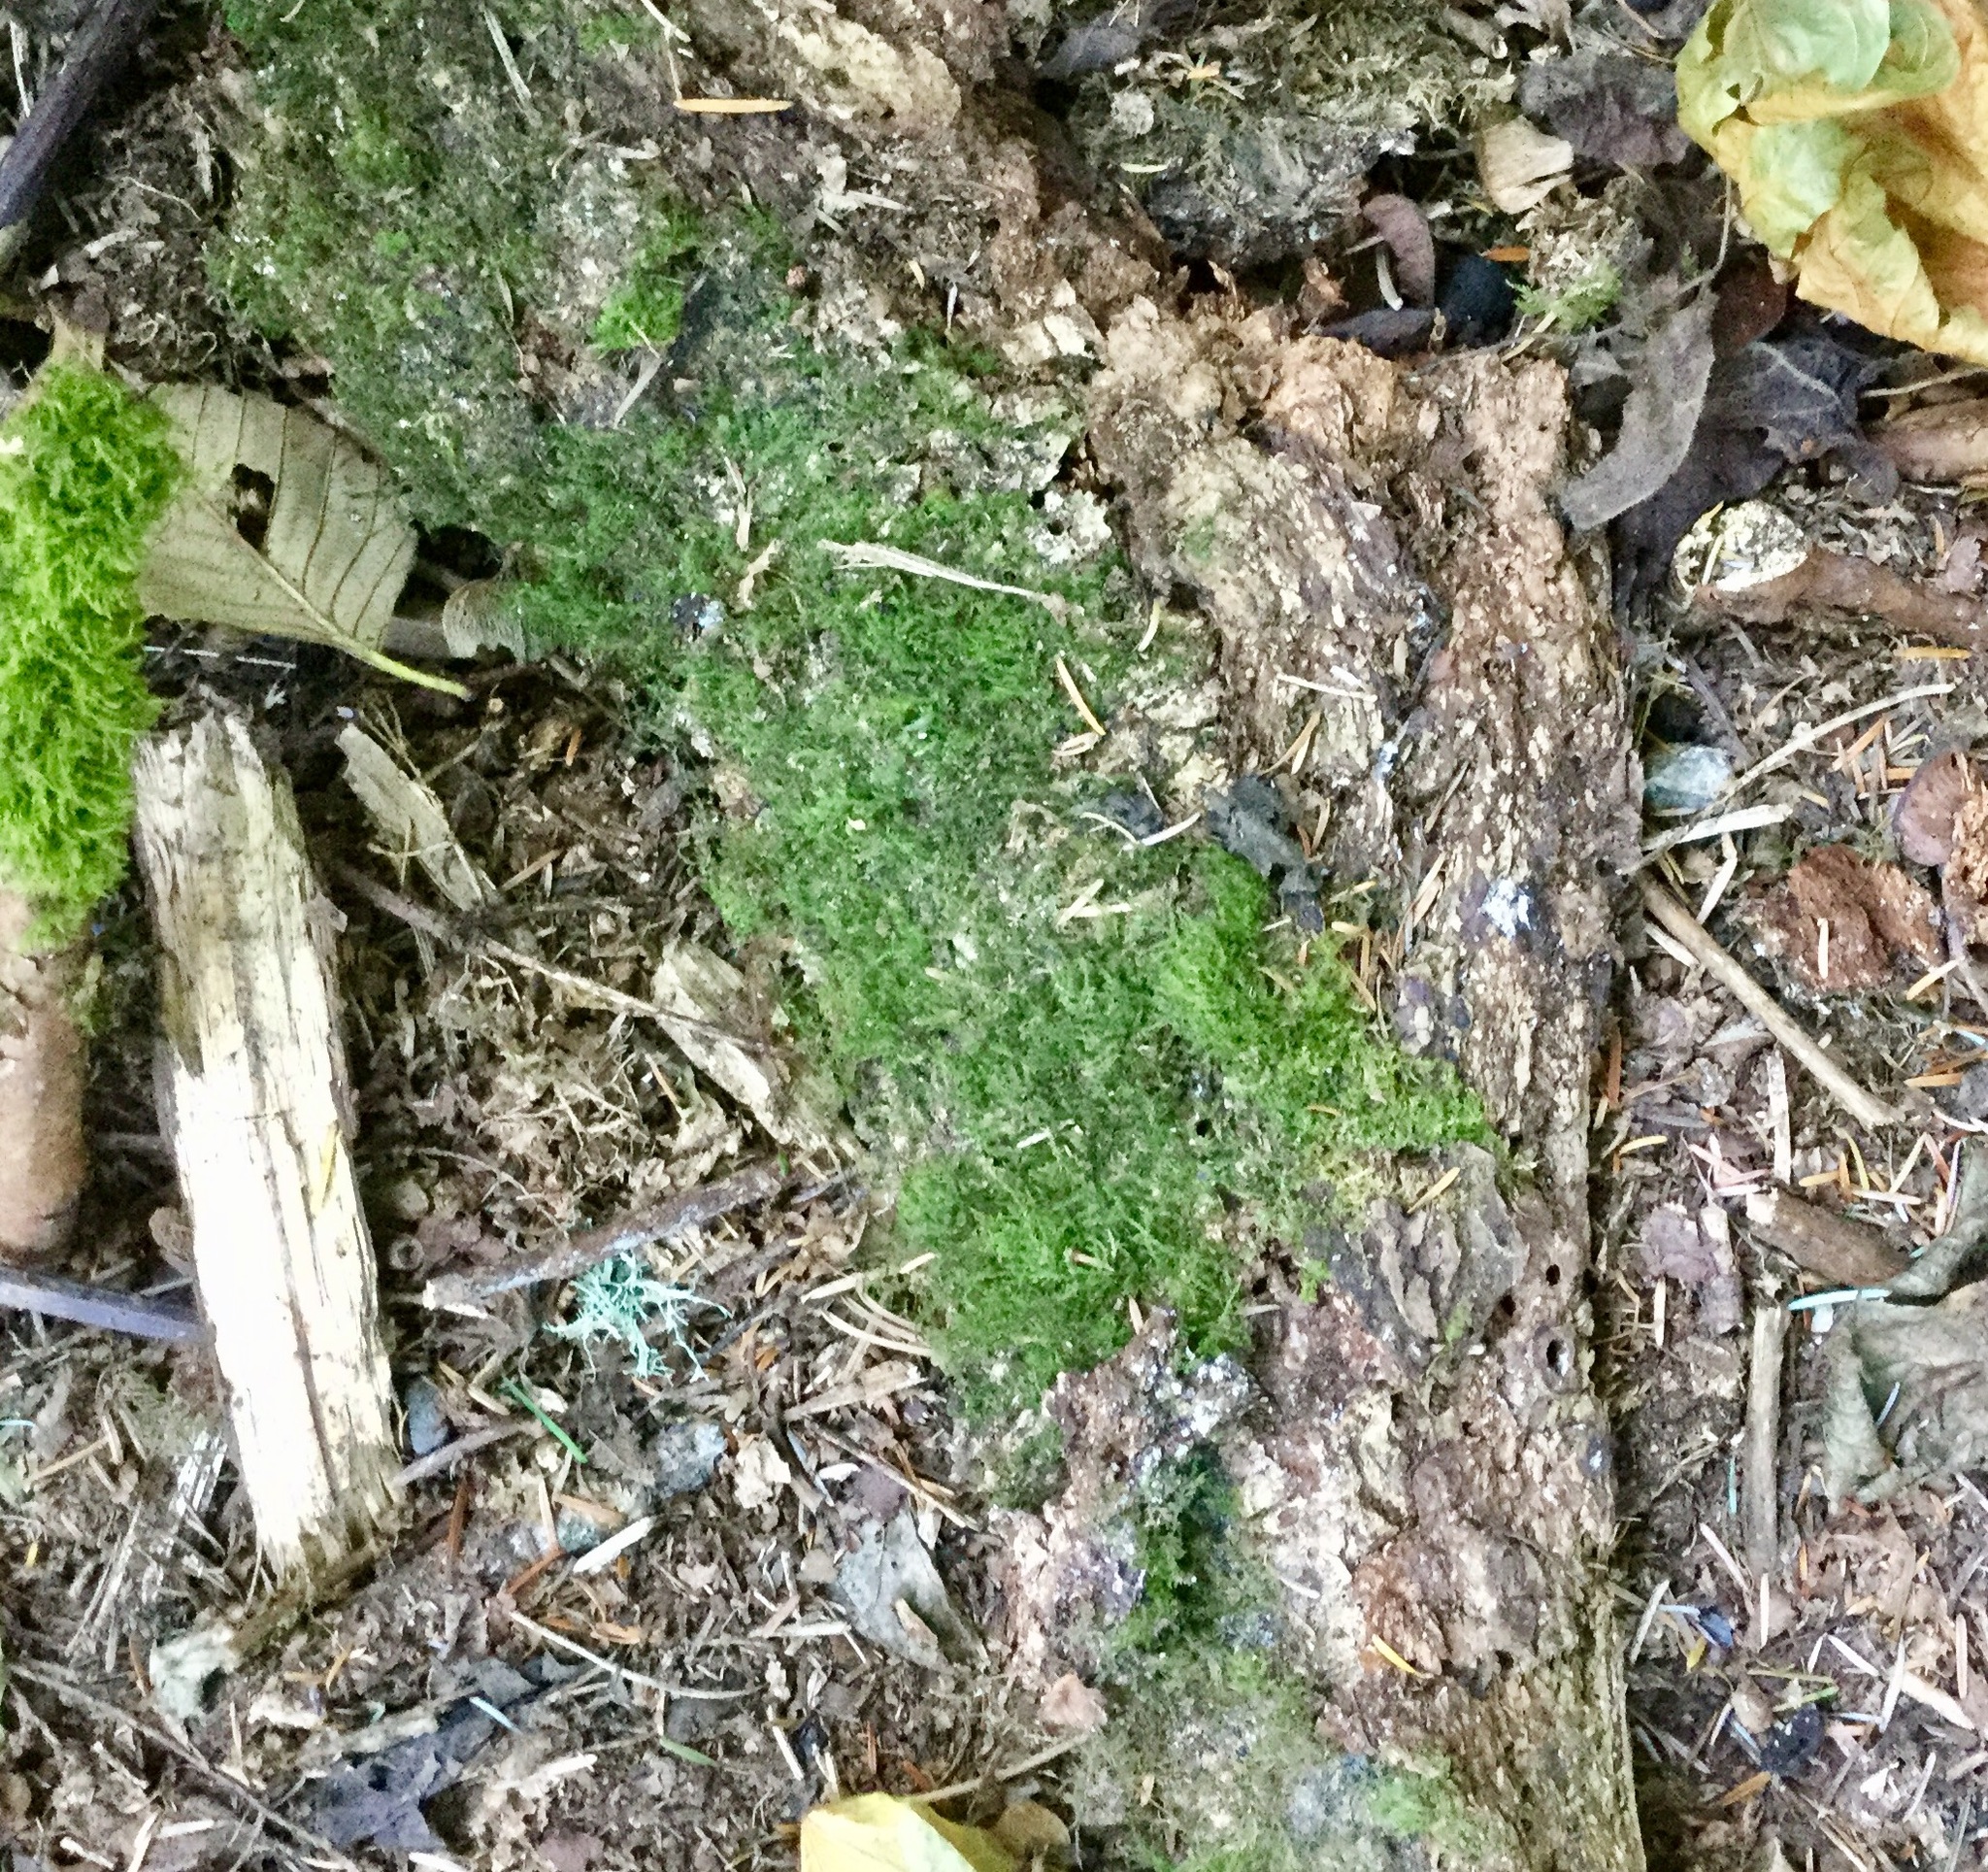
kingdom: Fungi
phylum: Ascomycota
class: Sordariomycetes
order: Xylariales
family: Xylariaceae
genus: Kretzschmaria
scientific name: Kretzschmaria deusta
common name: Brittle cinder
